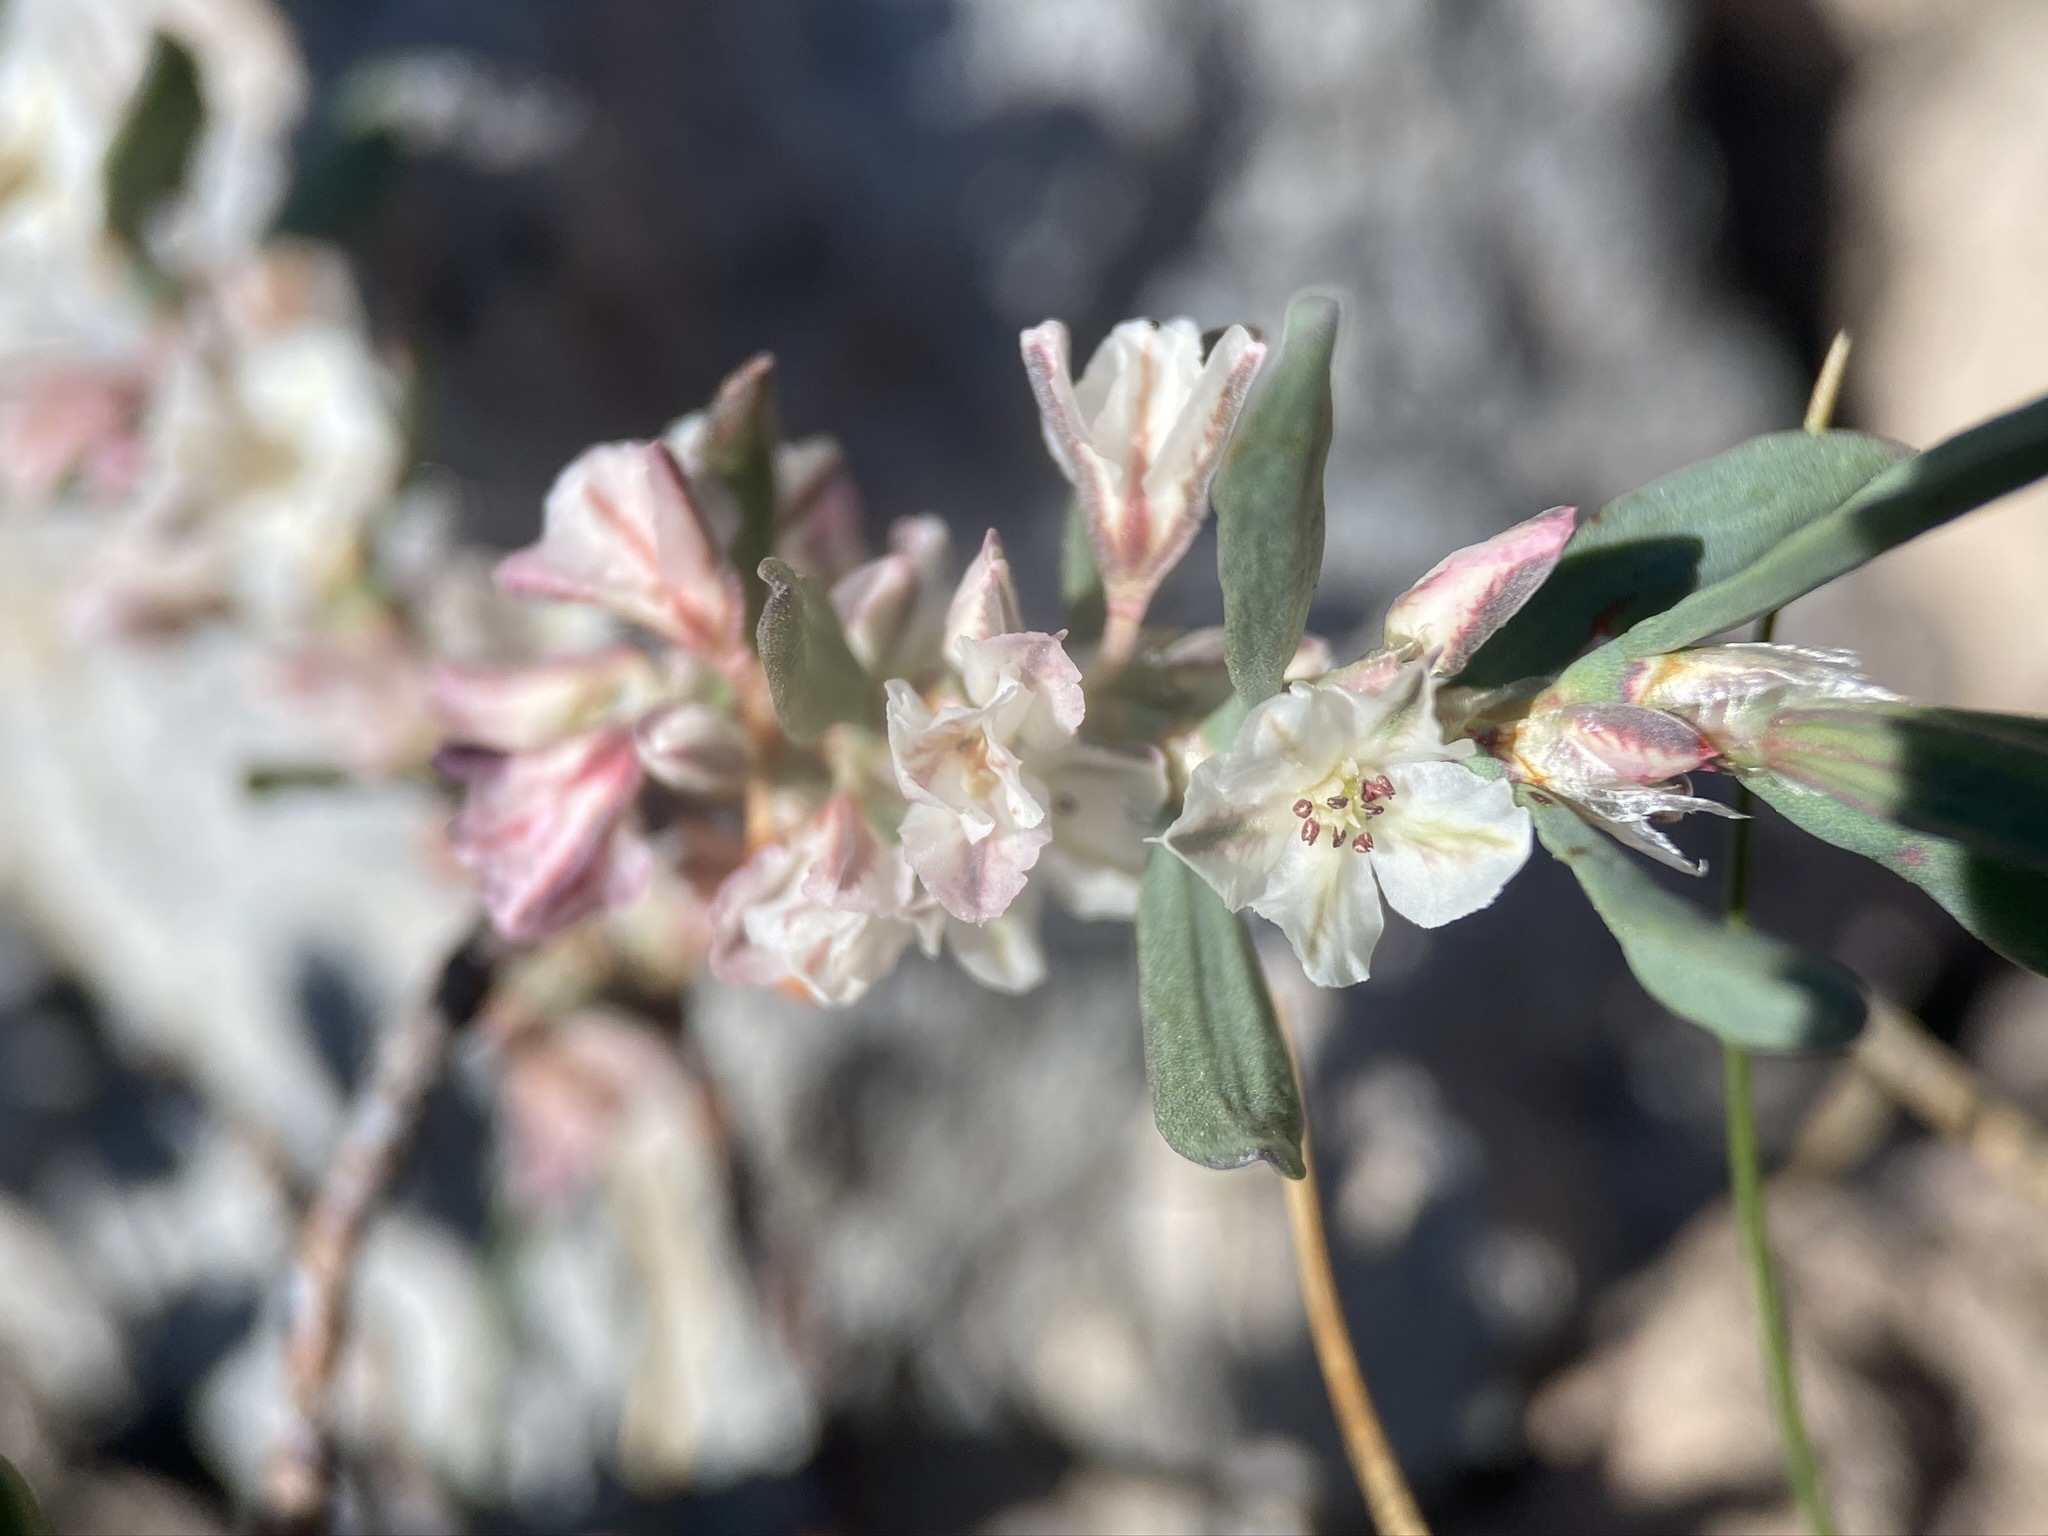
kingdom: Plantae
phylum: Tracheophyta
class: Magnoliopsida
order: Caryophyllales
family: Polygonaceae
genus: Polygonum
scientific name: Polygonum shastense
